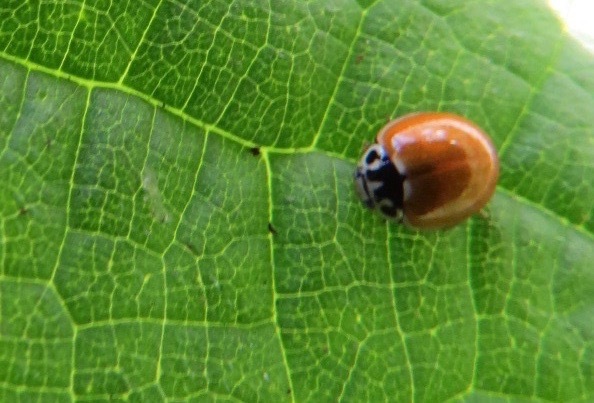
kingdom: Animalia
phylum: Arthropoda
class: Insecta
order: Coleoptera
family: Coccinellidae
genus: Cycloneda
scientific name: Cycloneda polita
